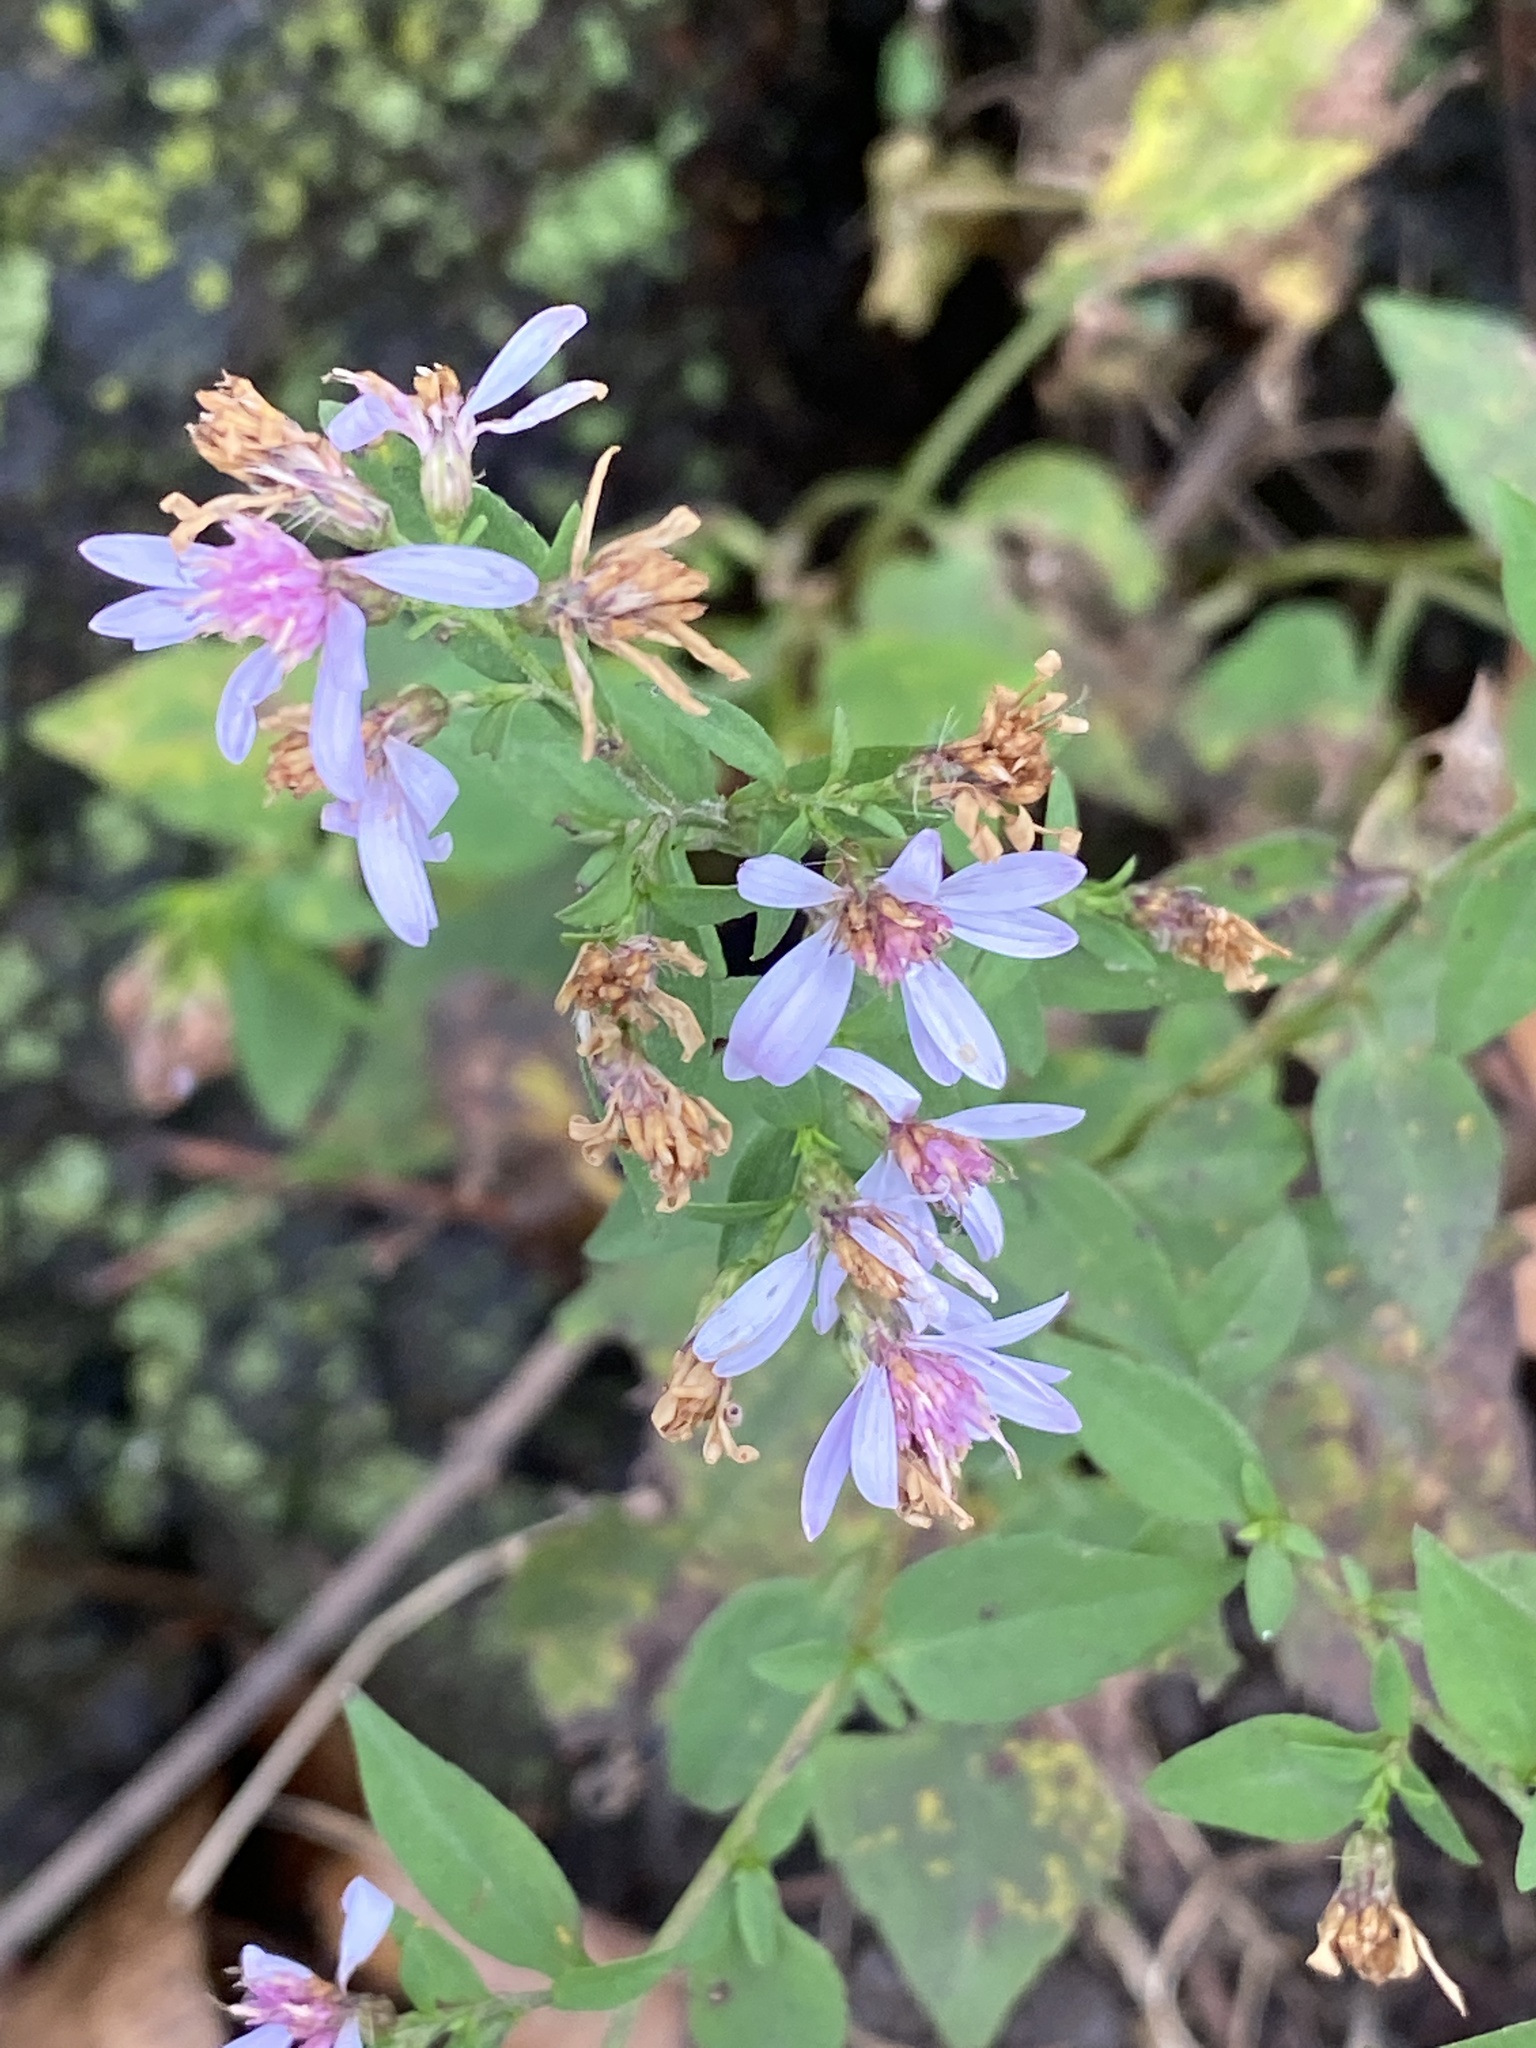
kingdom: Plantae
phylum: Tracheophyta
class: Magnoliopsida
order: Asterales
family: Asteraceae
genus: Symphyotrichum
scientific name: Symphyotrichum cordifolium
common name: Beeweed
